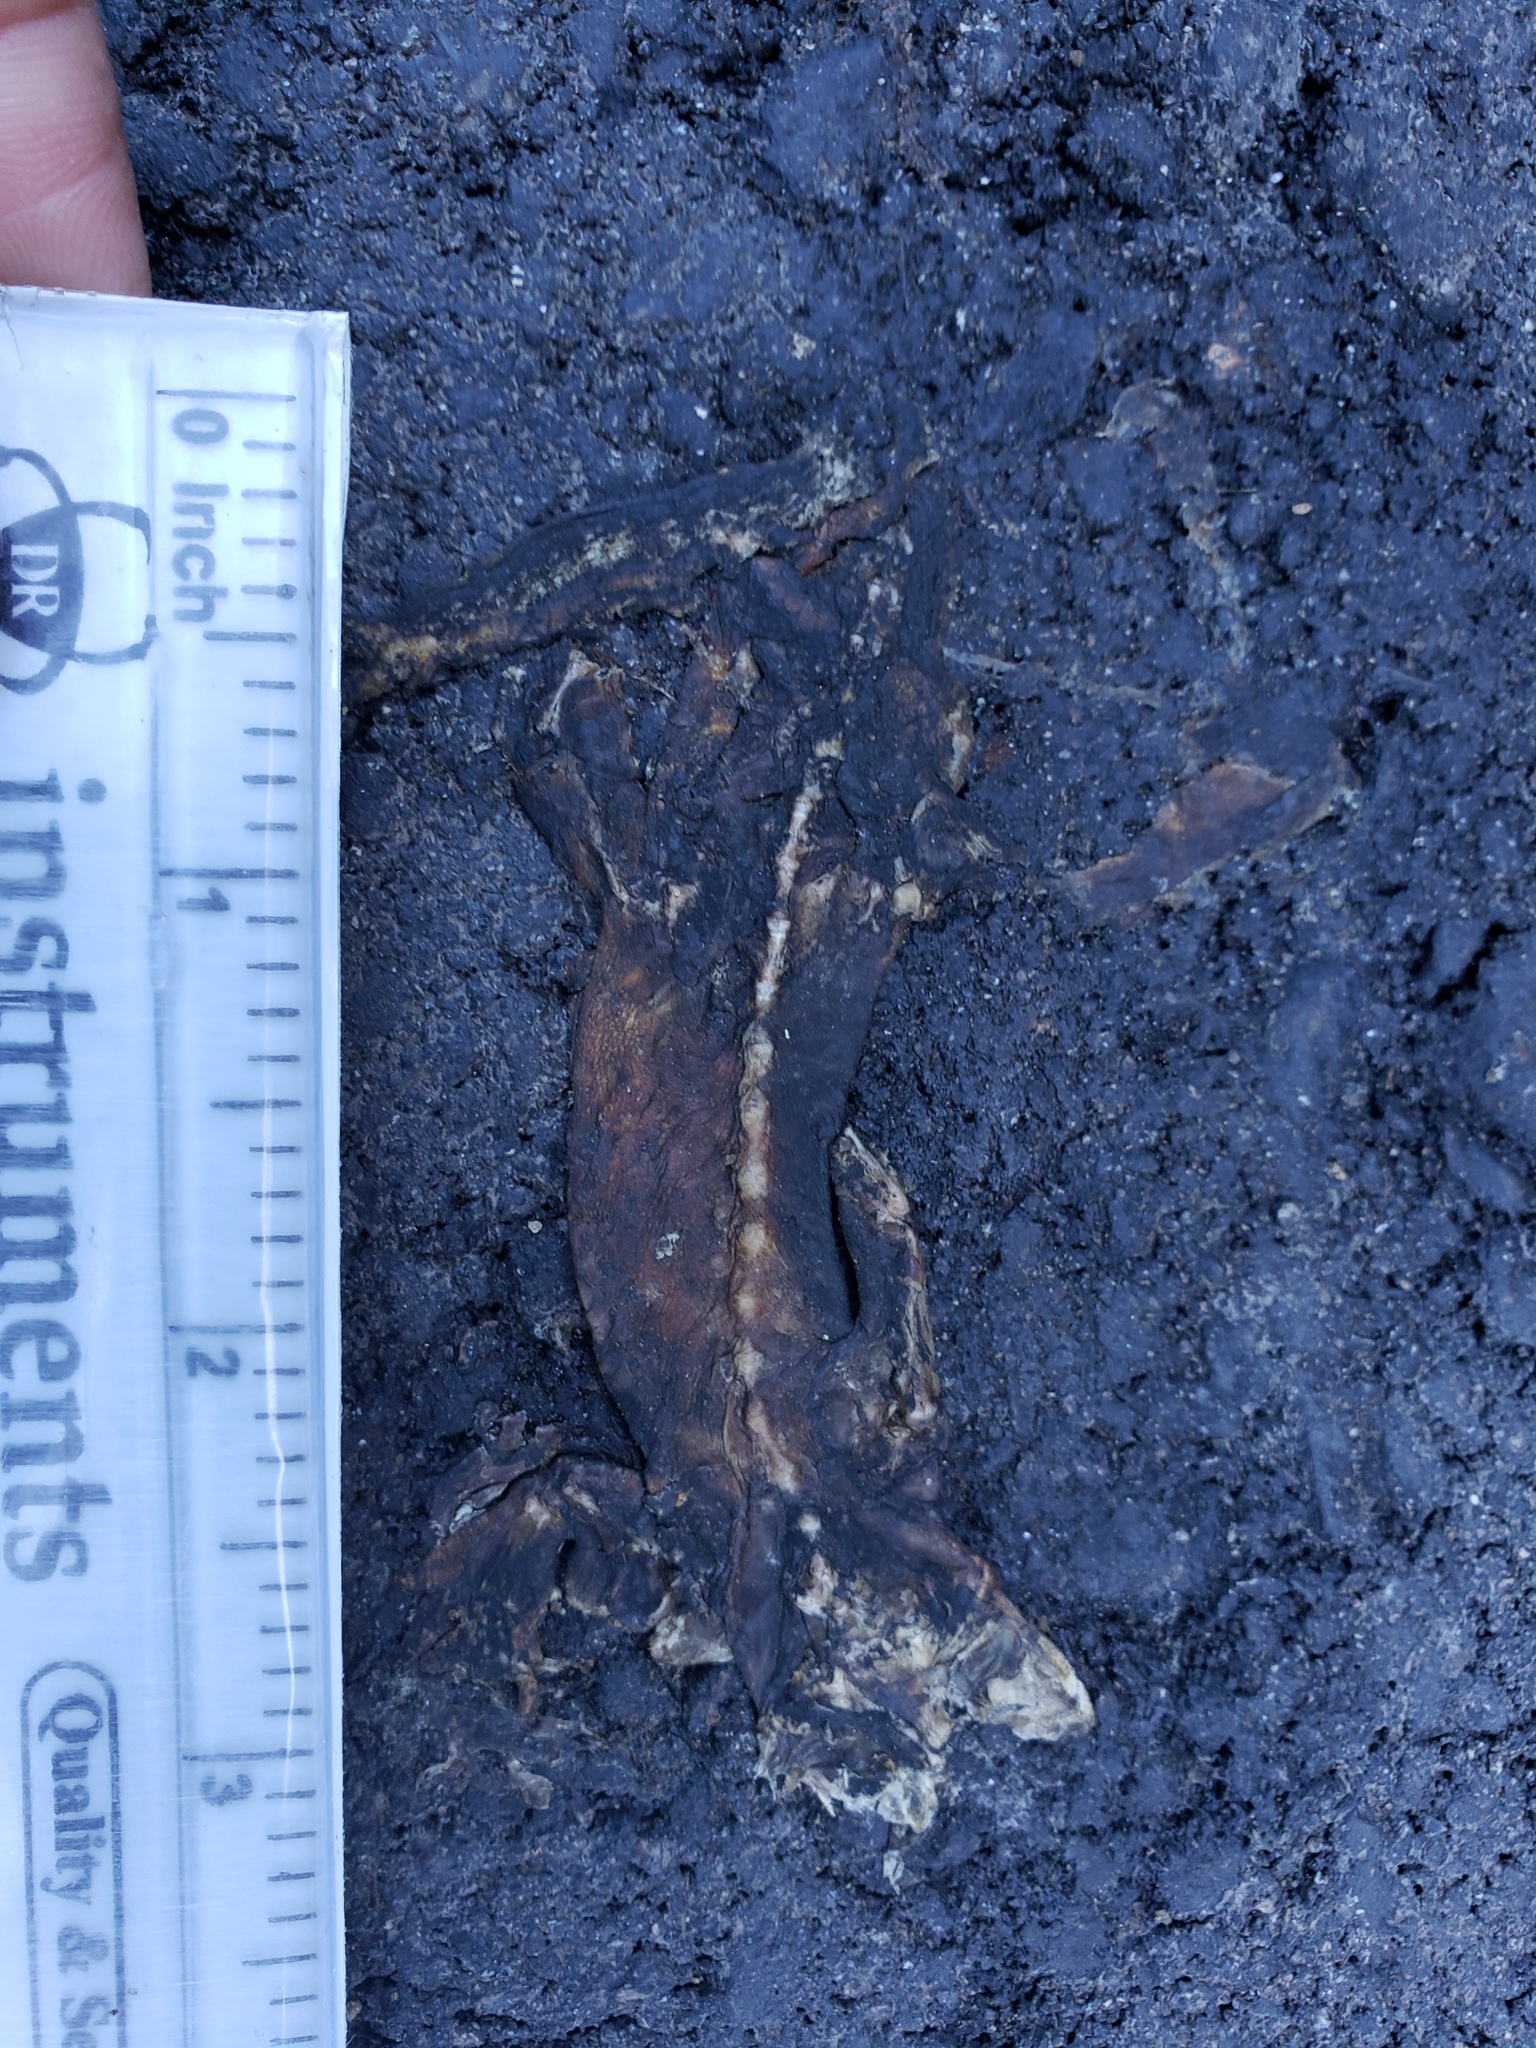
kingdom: Animalia
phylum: Chordata
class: Amphibia
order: Caudata
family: Salamandridae
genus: Taricha
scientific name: Taricha
